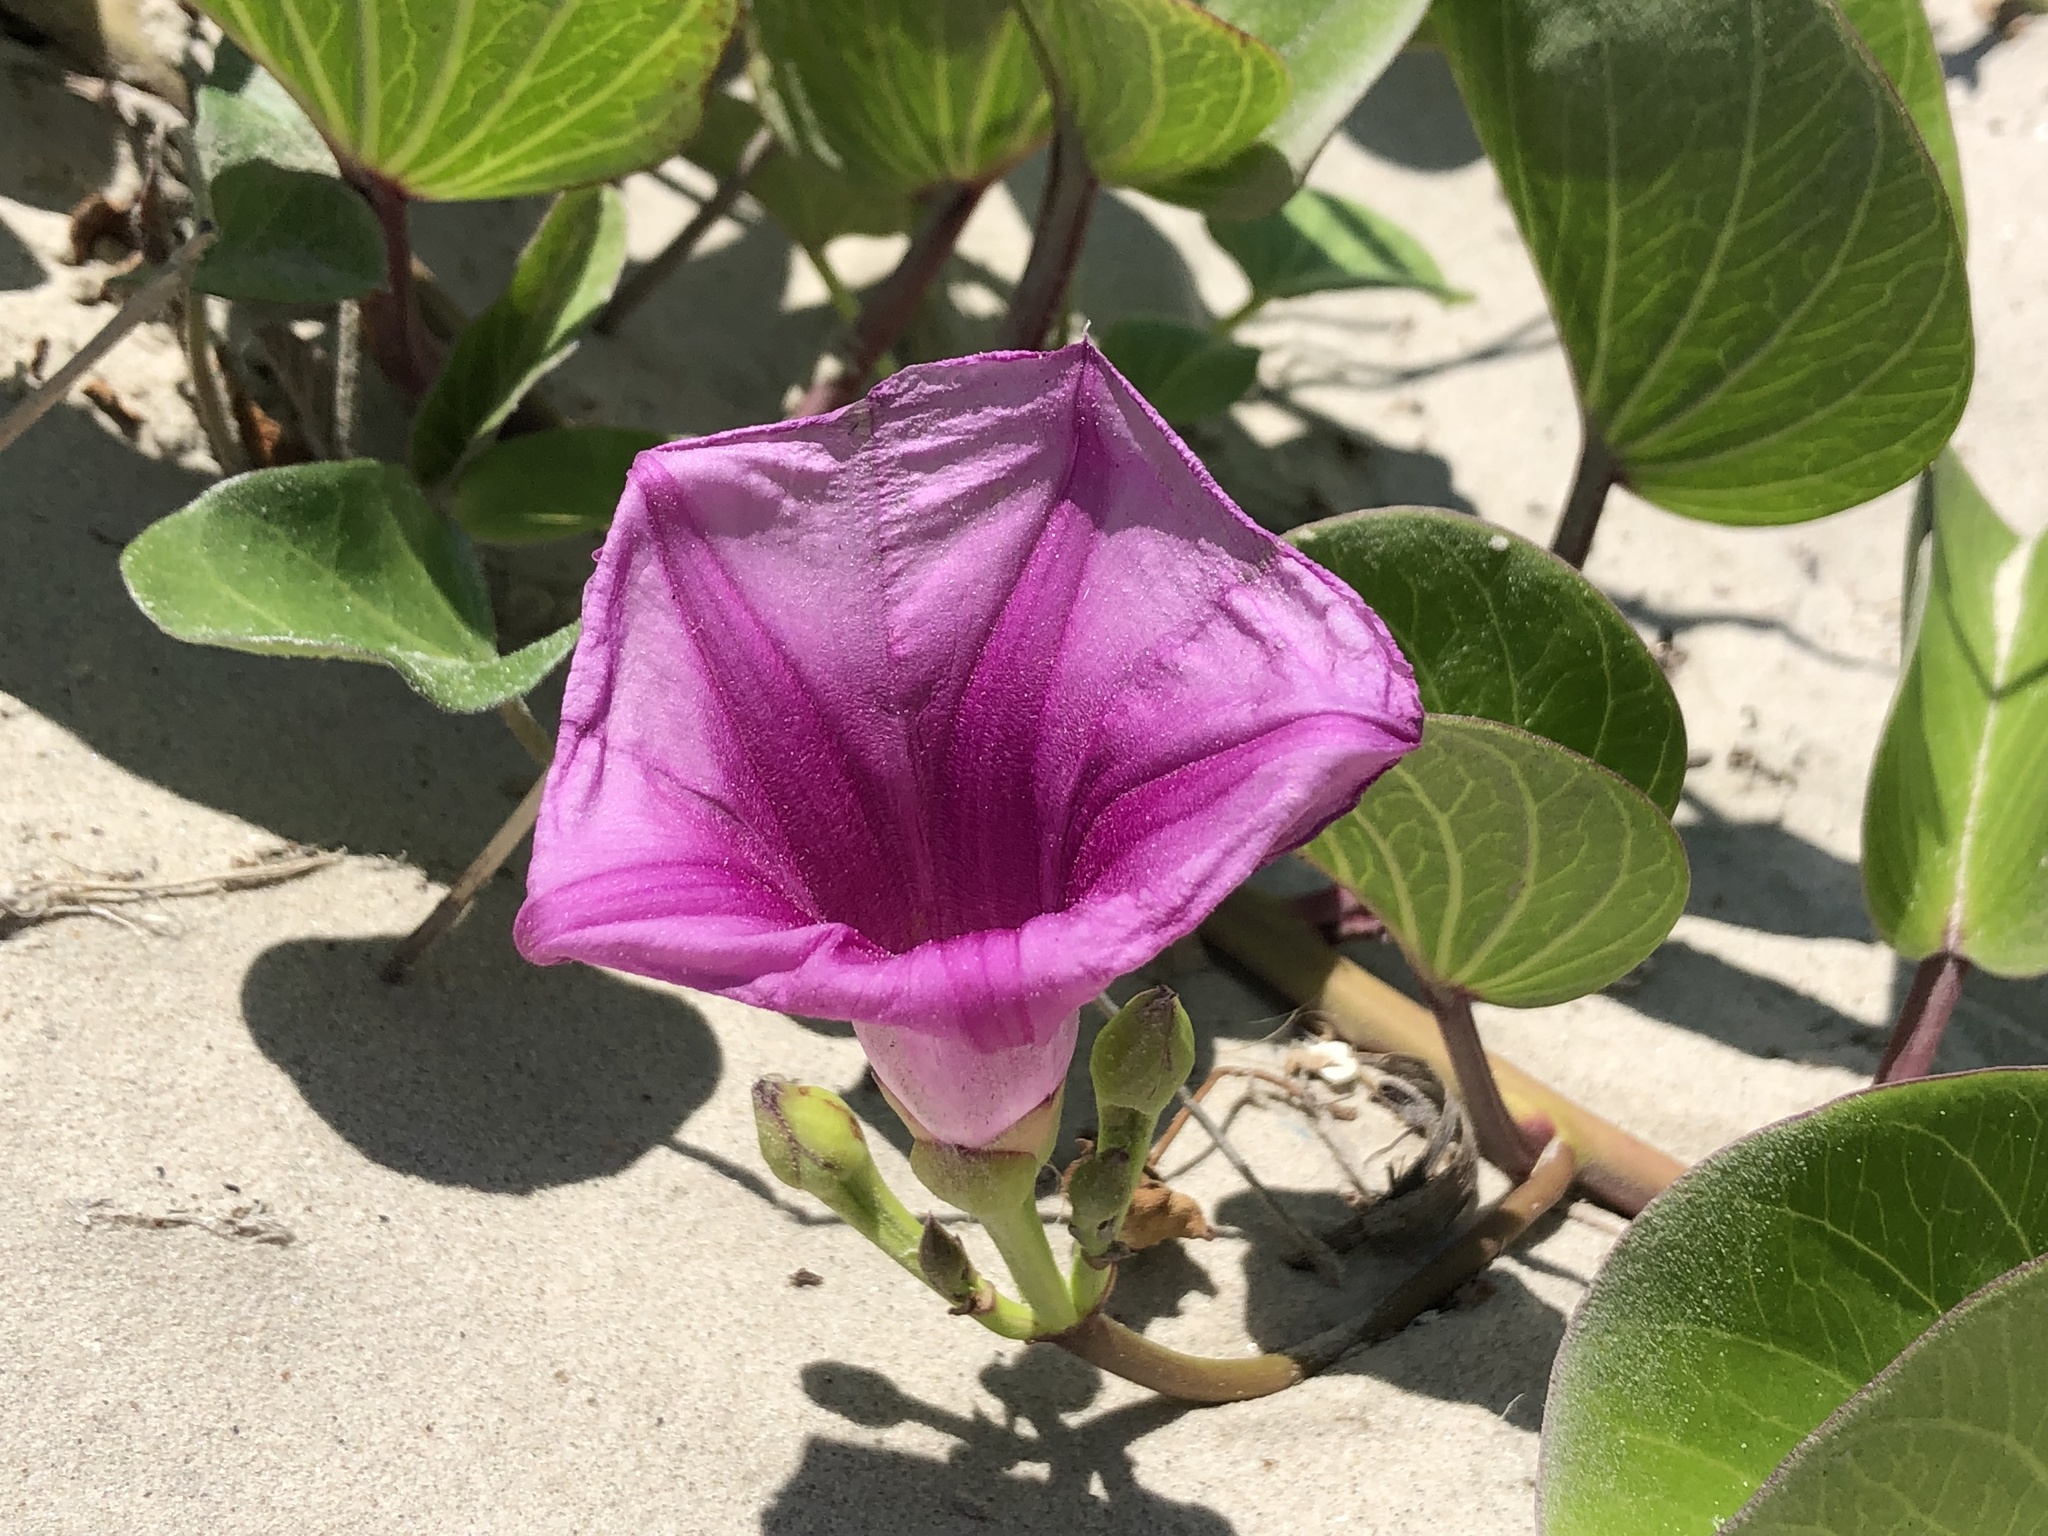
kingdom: Plantae
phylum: Tracheophyta
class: Magnoliopsida
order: Solanales
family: Convolvulaceae
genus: Ipomoea
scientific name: Ipomoea pes-caprae
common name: Beach morning glory
